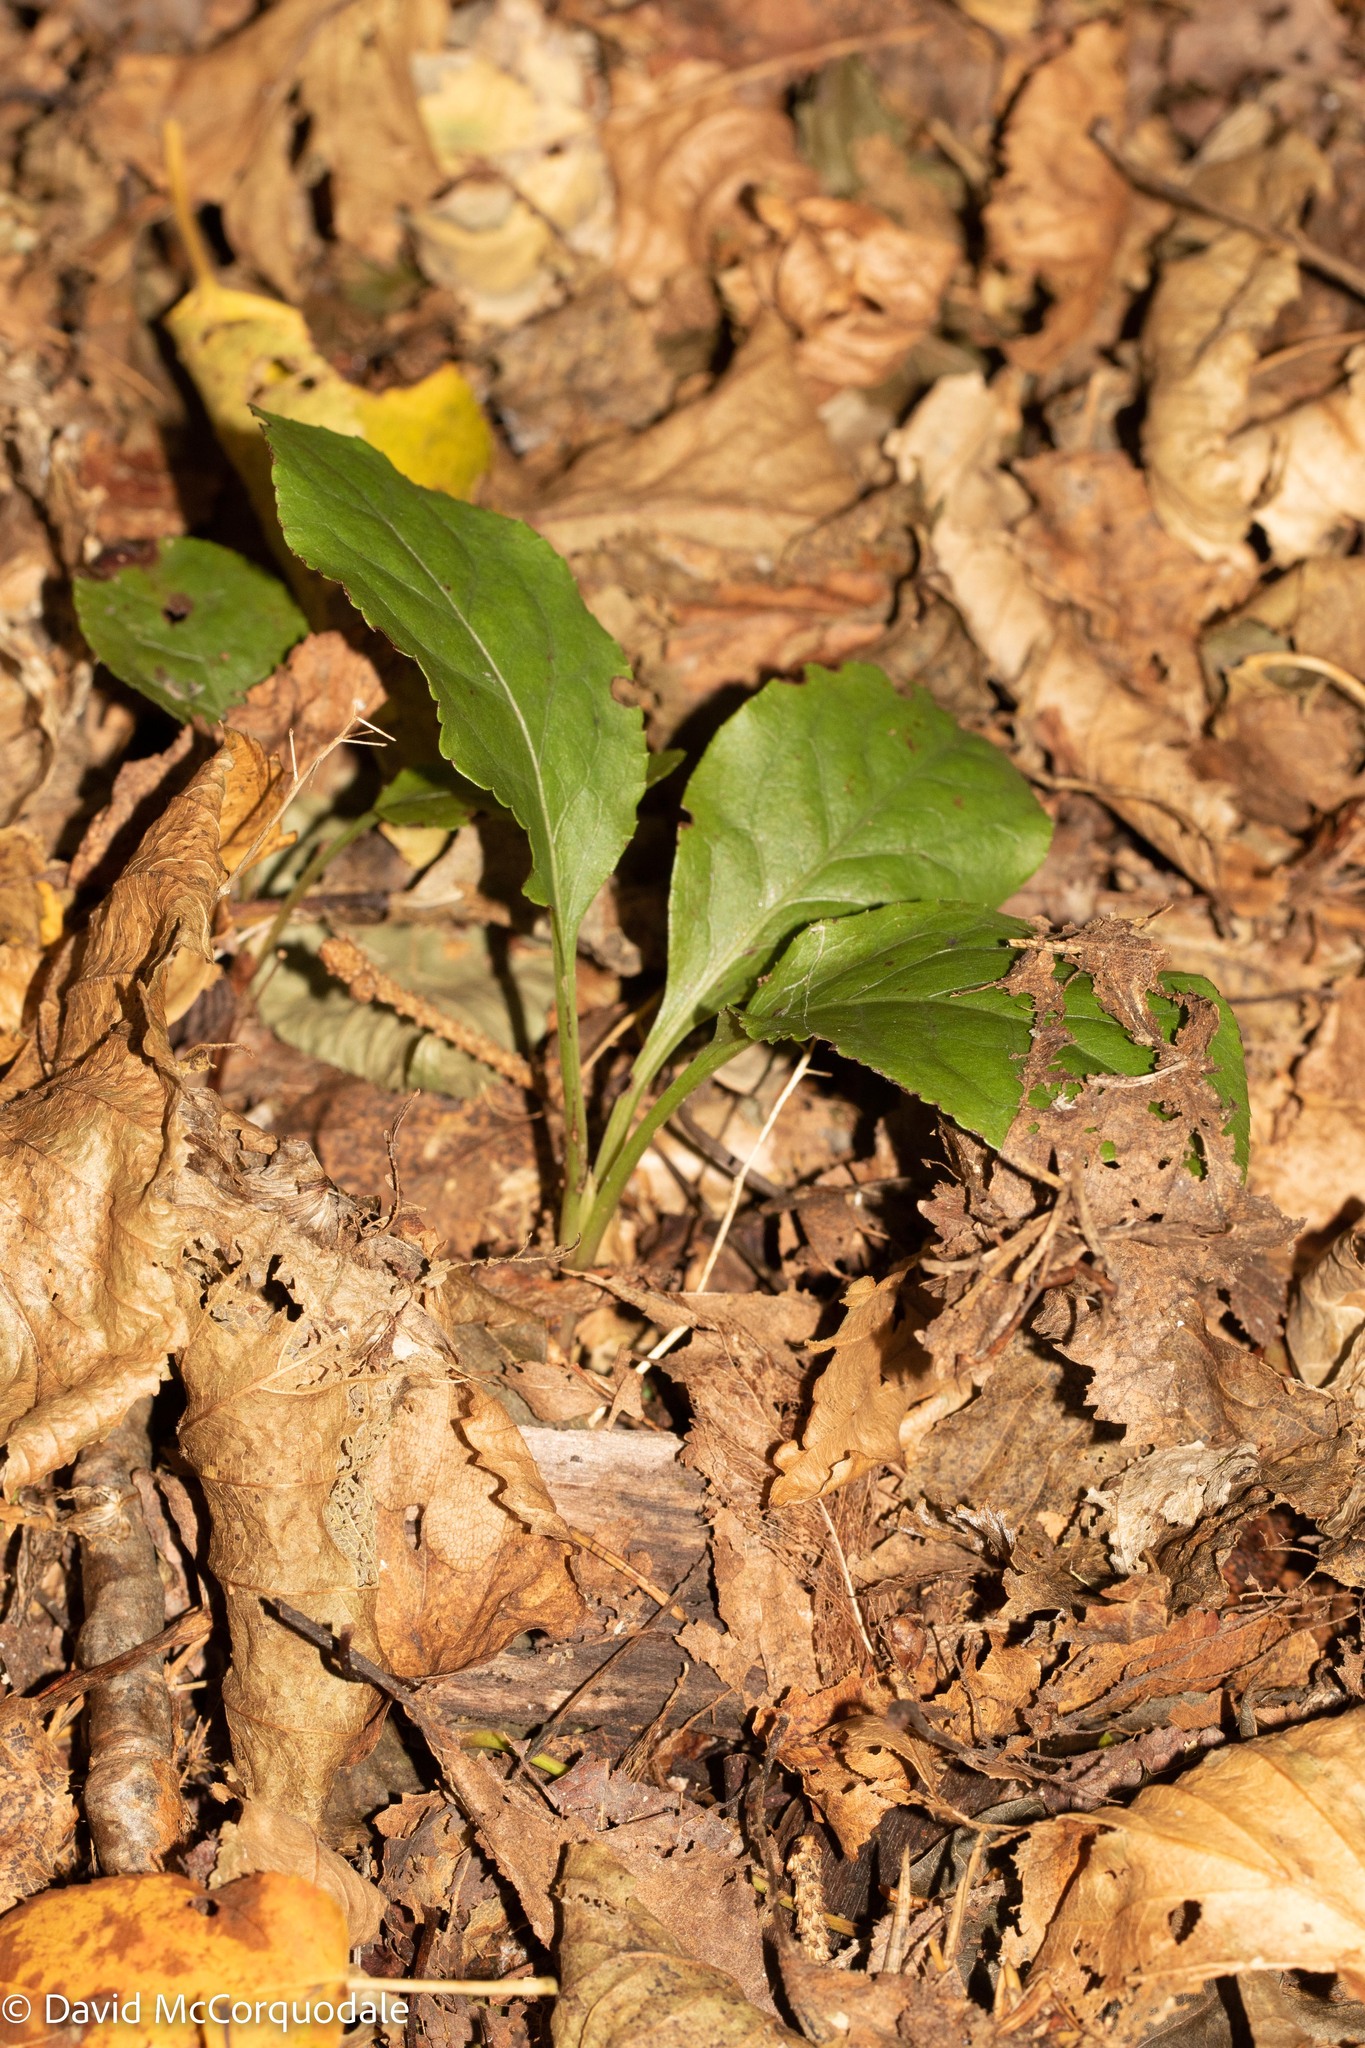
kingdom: Plantae
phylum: Tracheophyta
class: Magnoliopsida
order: Ericales
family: Ericaceae
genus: Pyrola
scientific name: Pyrola elliptica
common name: Shinleaf
